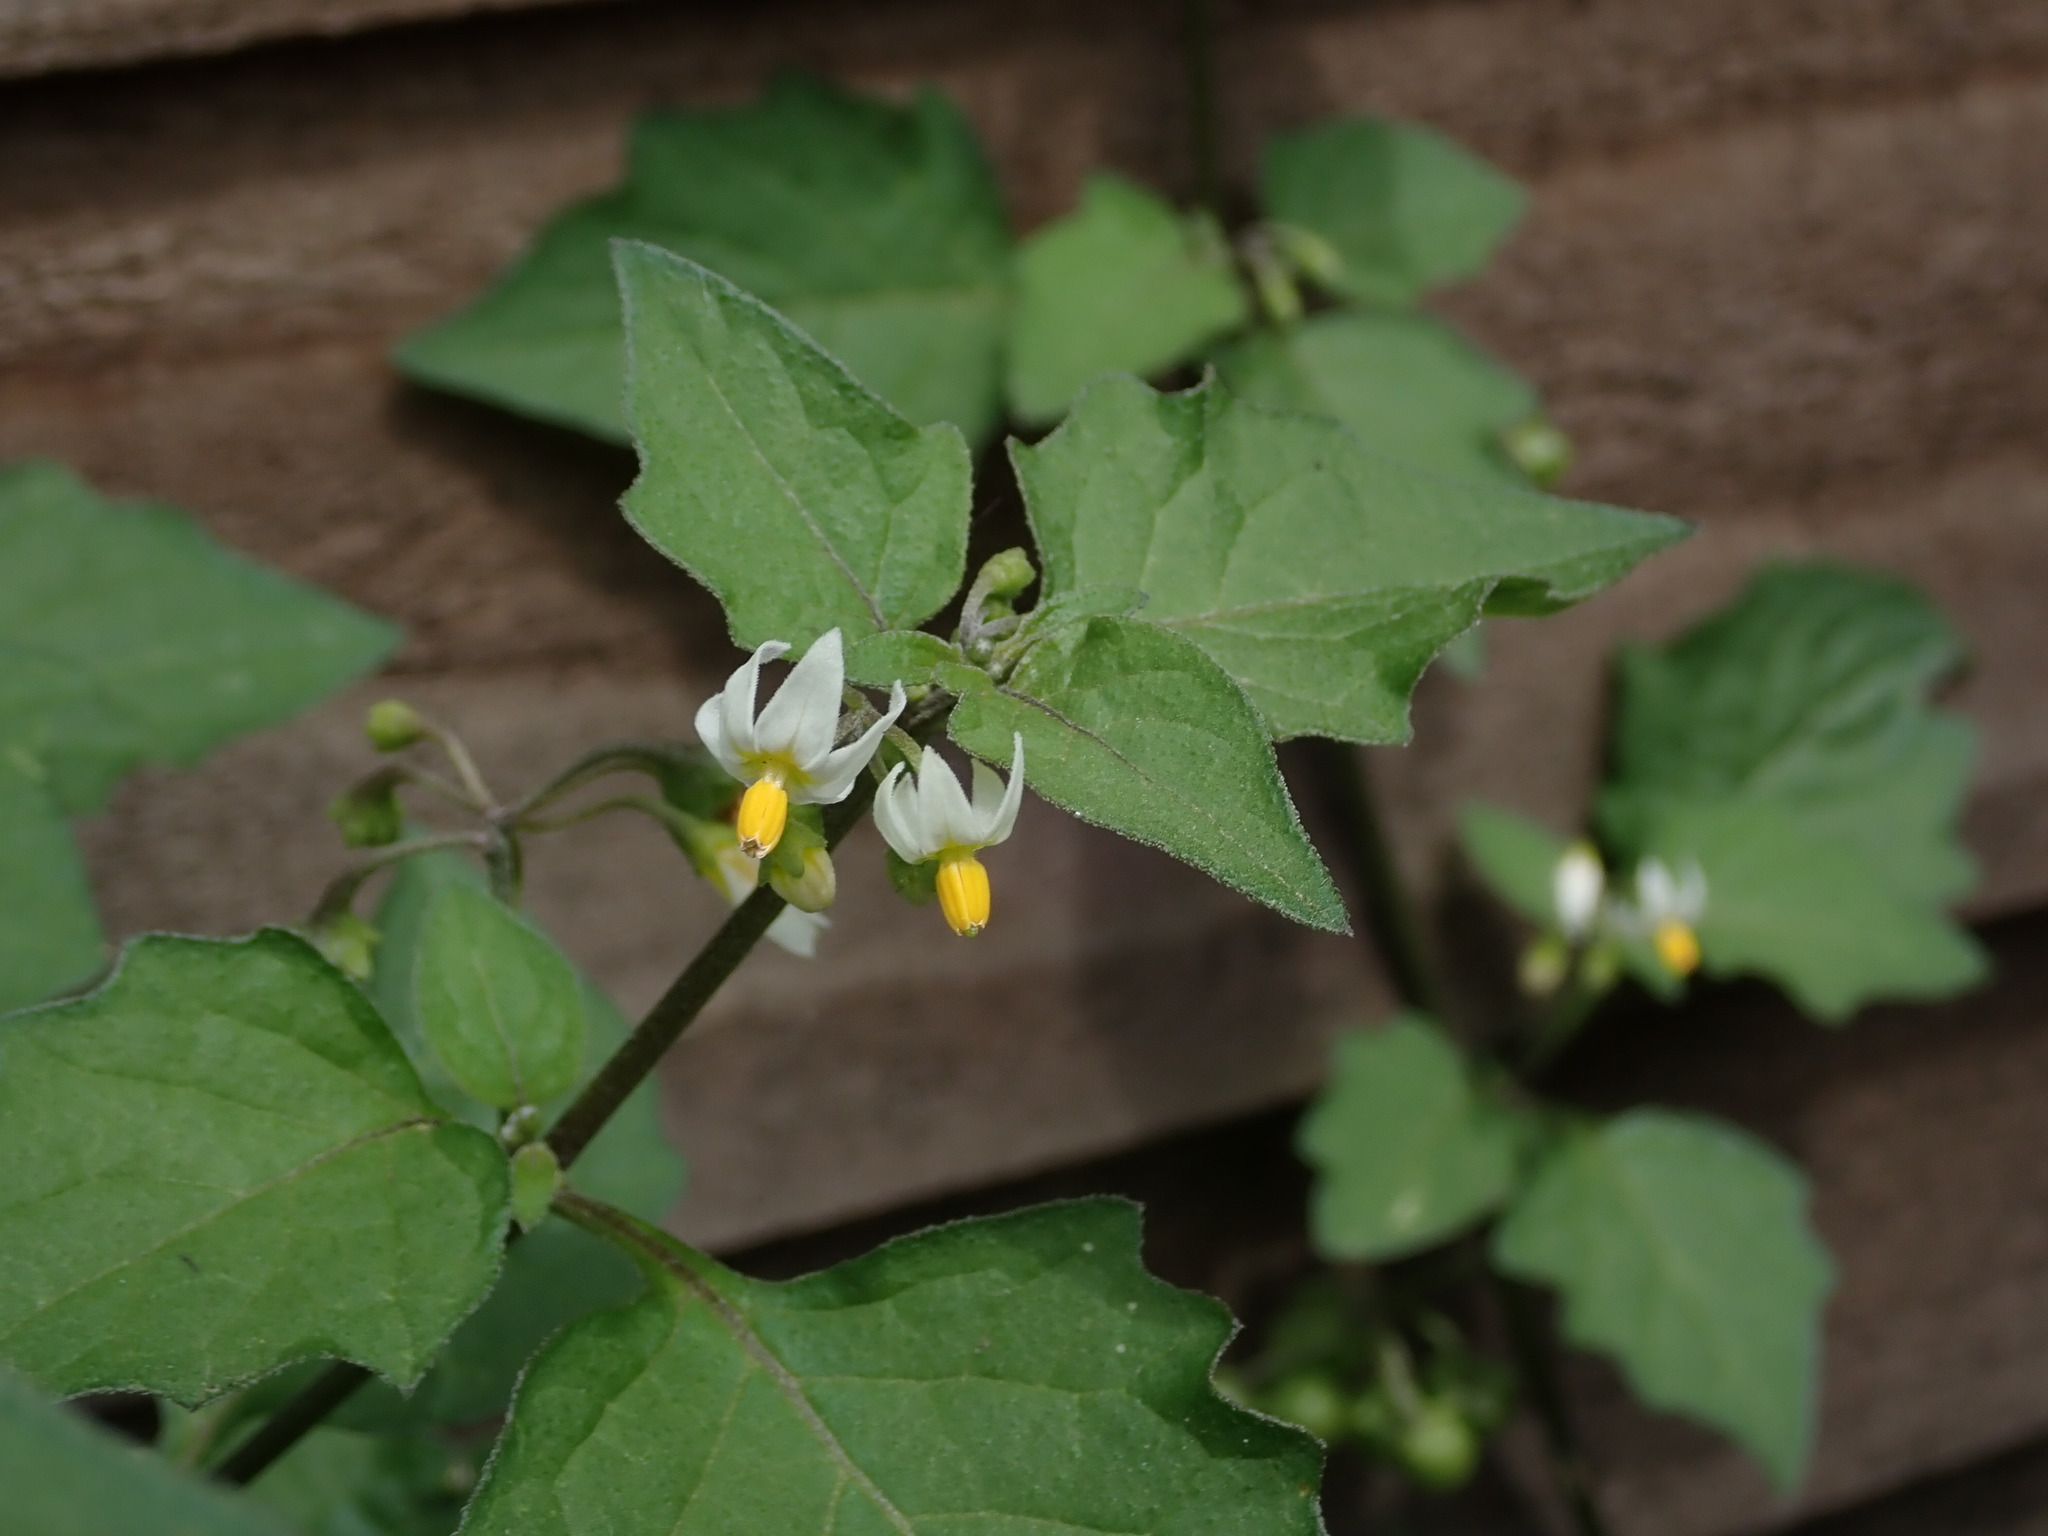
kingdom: Plantae
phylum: Tracheophyta
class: Magnoliopsida
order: Solanales
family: Solanaceae
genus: Solanum
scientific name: Solanum nigrum
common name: Black nightshade
